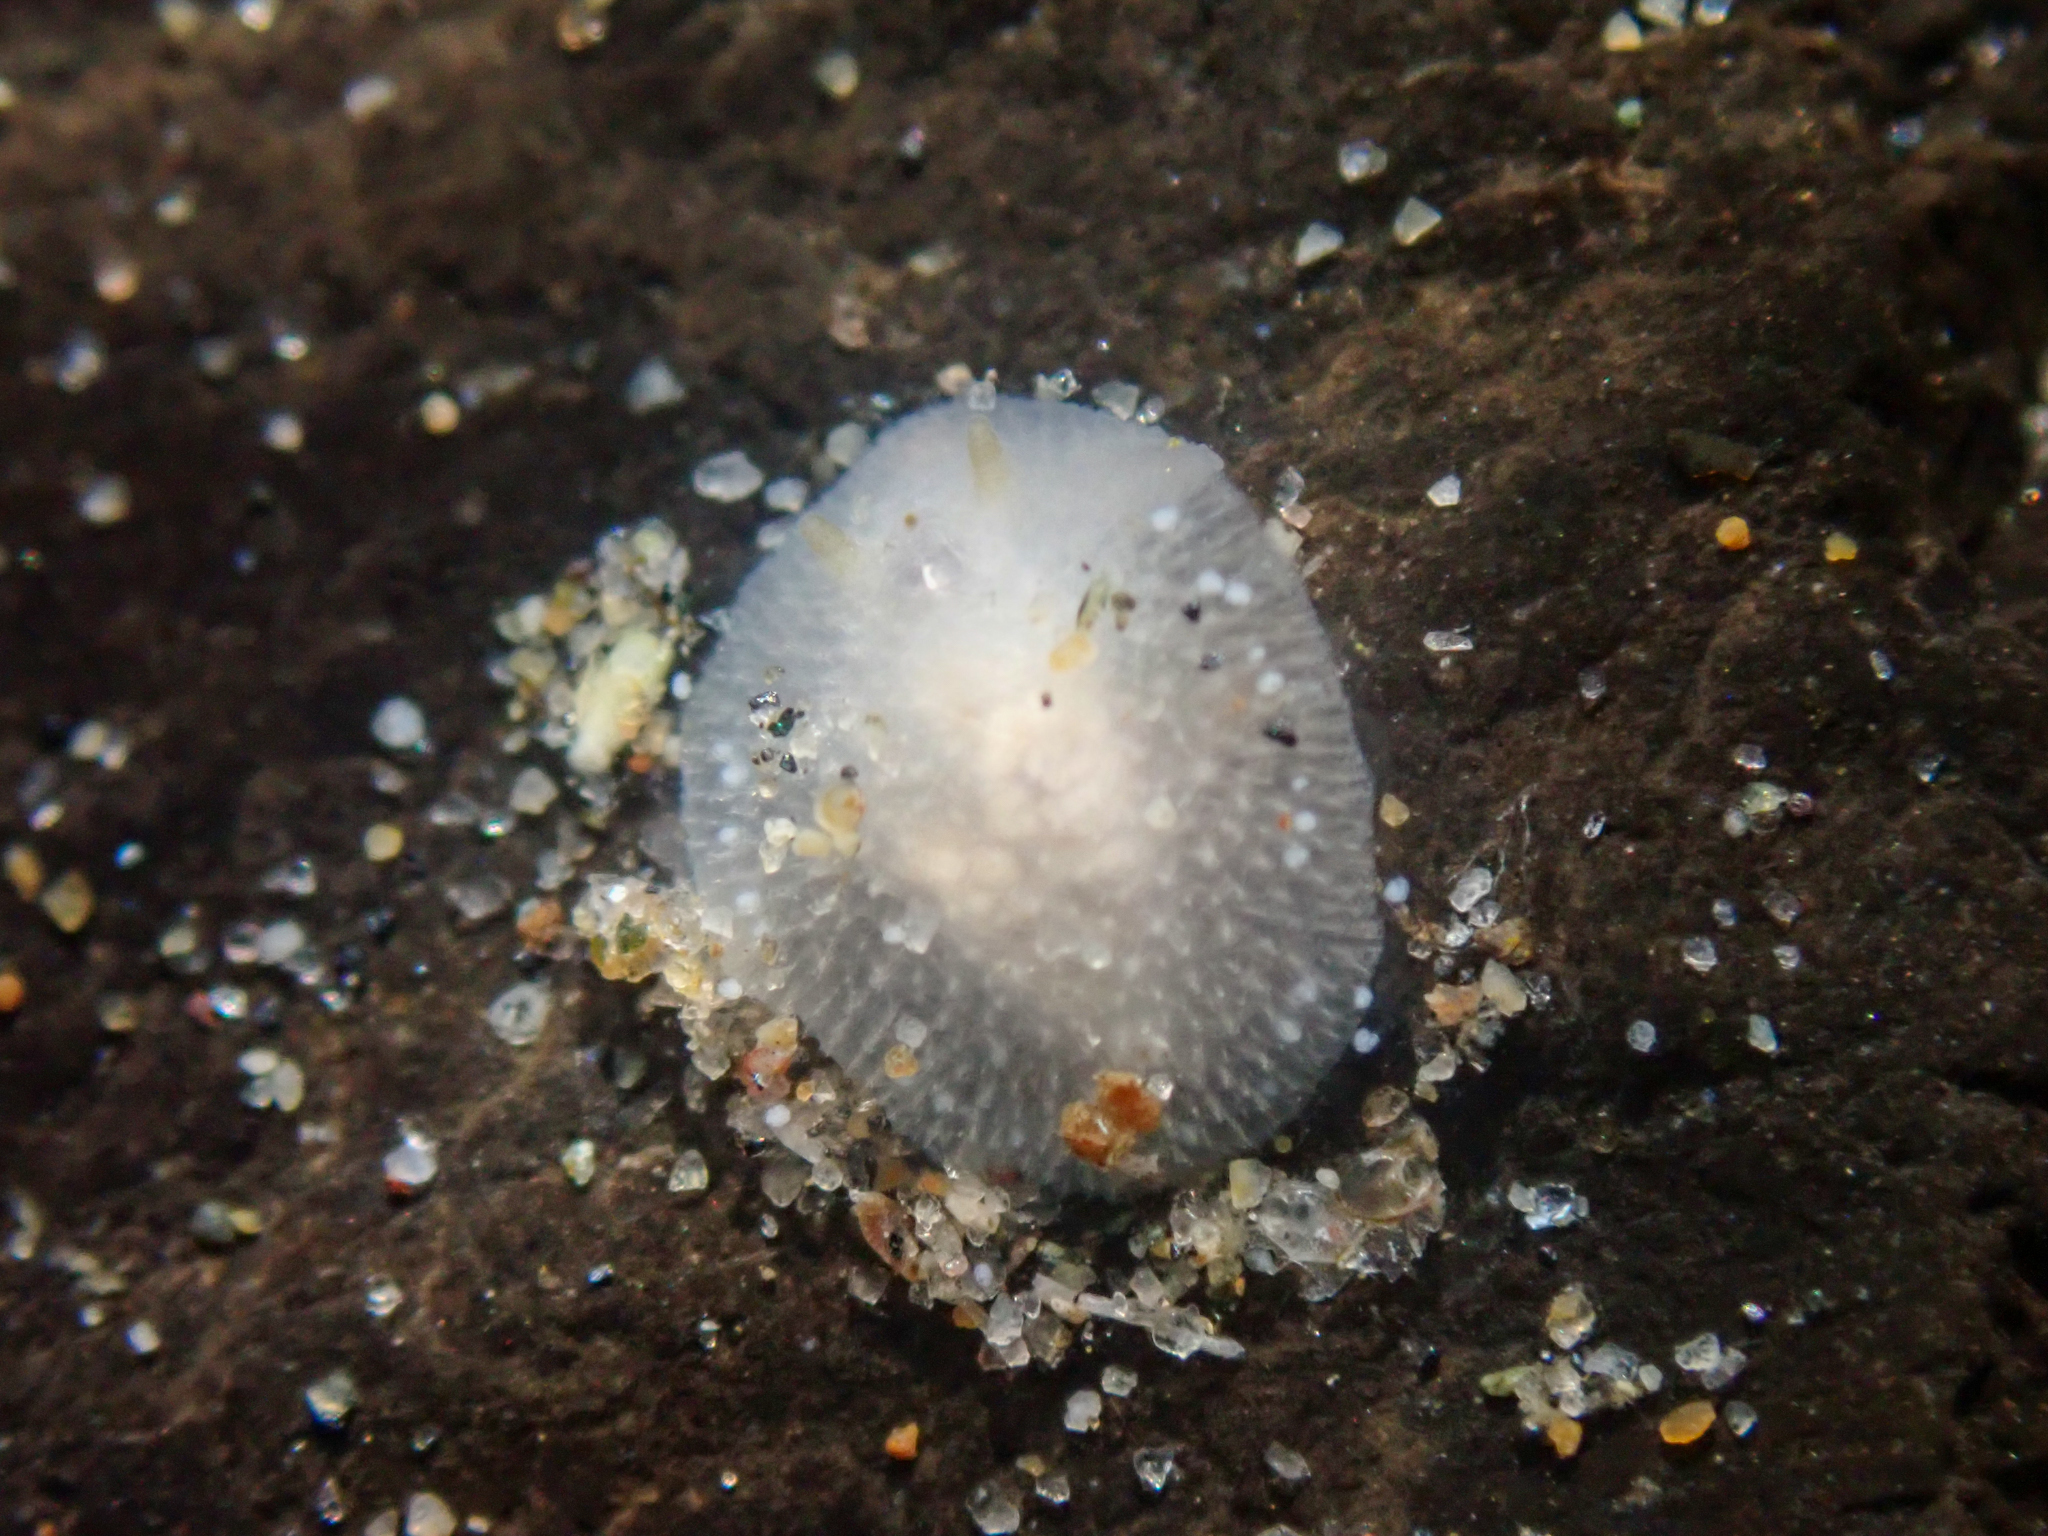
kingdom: Animalia
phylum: Mollusca
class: Gastropoda
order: Nudibranchia
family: Dorididae
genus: Conualevia
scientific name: Conualevia alba
